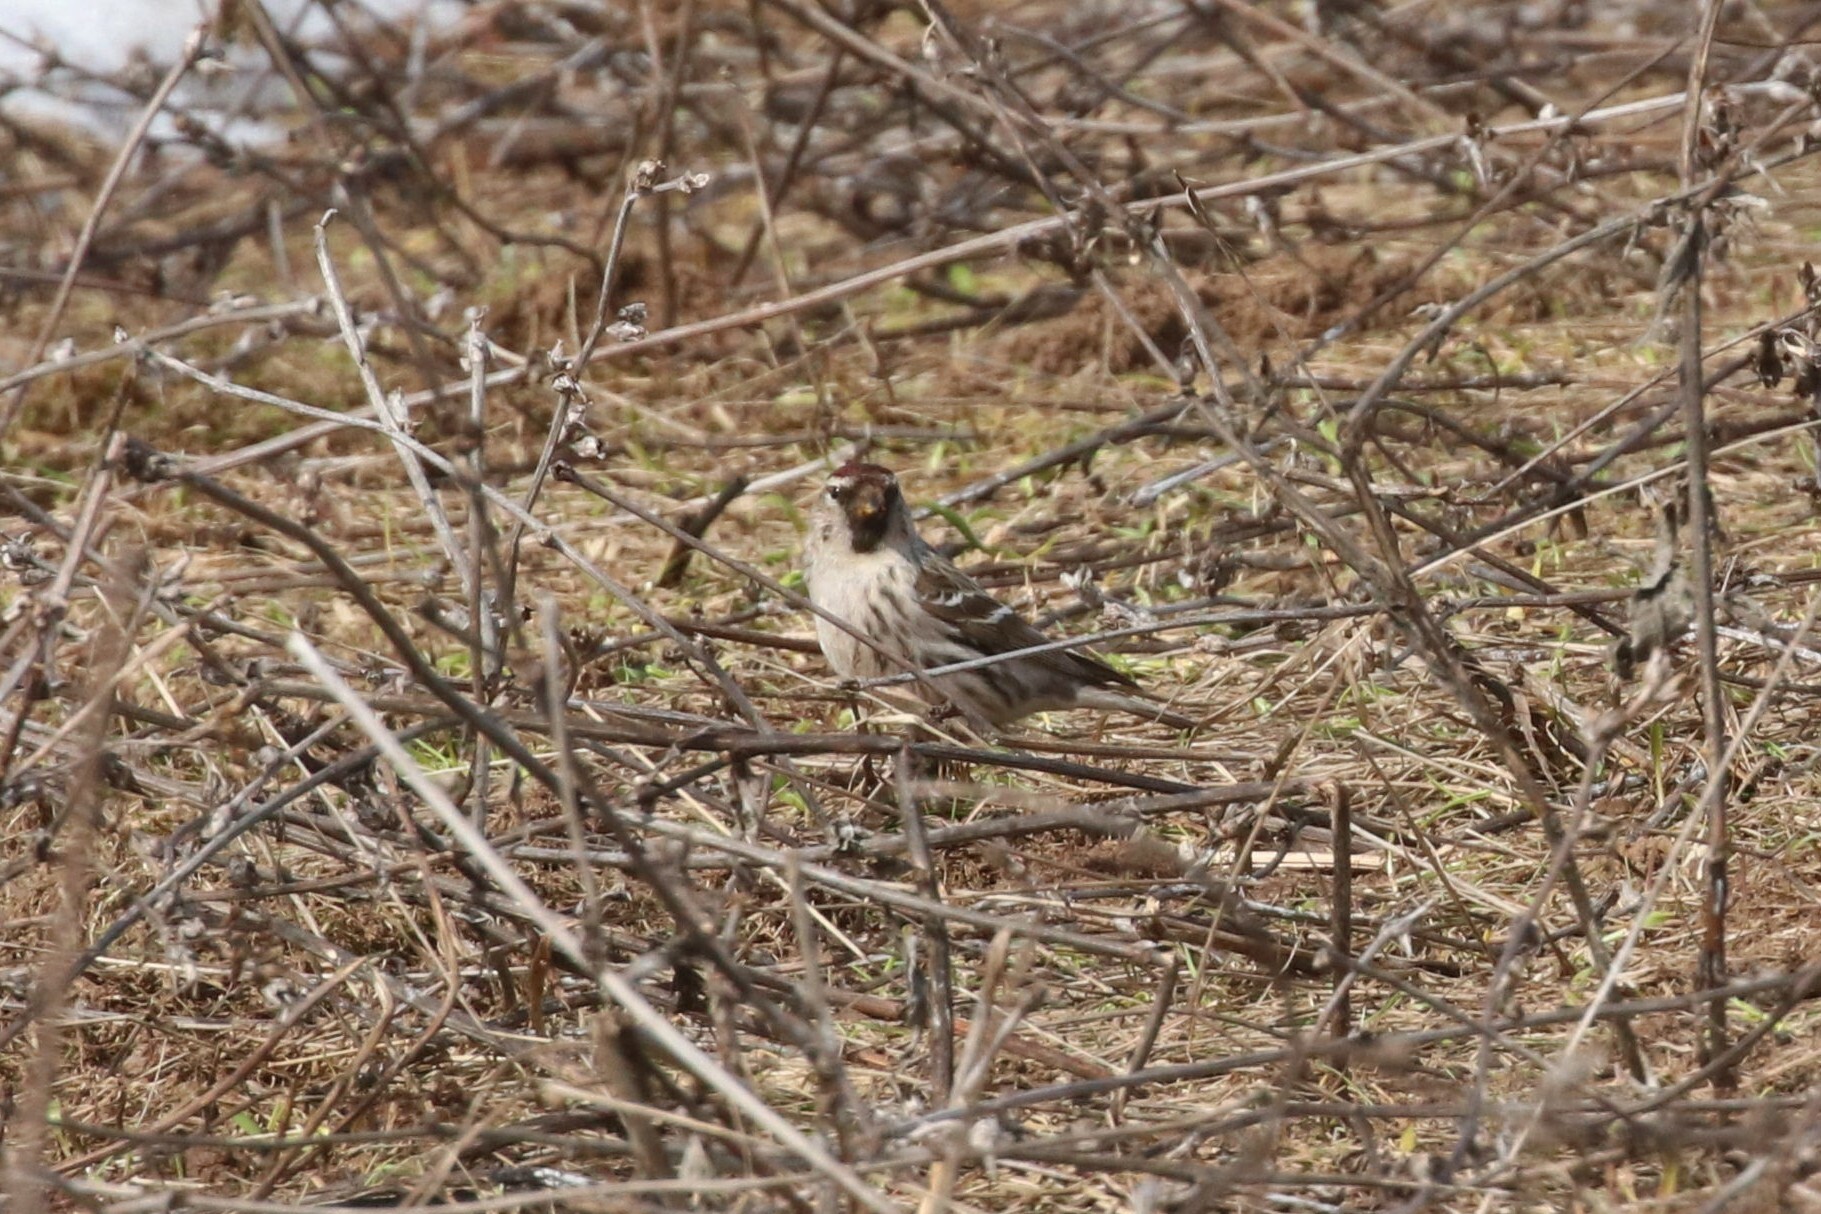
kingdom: Animalia
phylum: Chordata
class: Aves
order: Passeriformes
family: Fringillidae
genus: Acanthis
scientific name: Acanthis flammea
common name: Common redpoll
